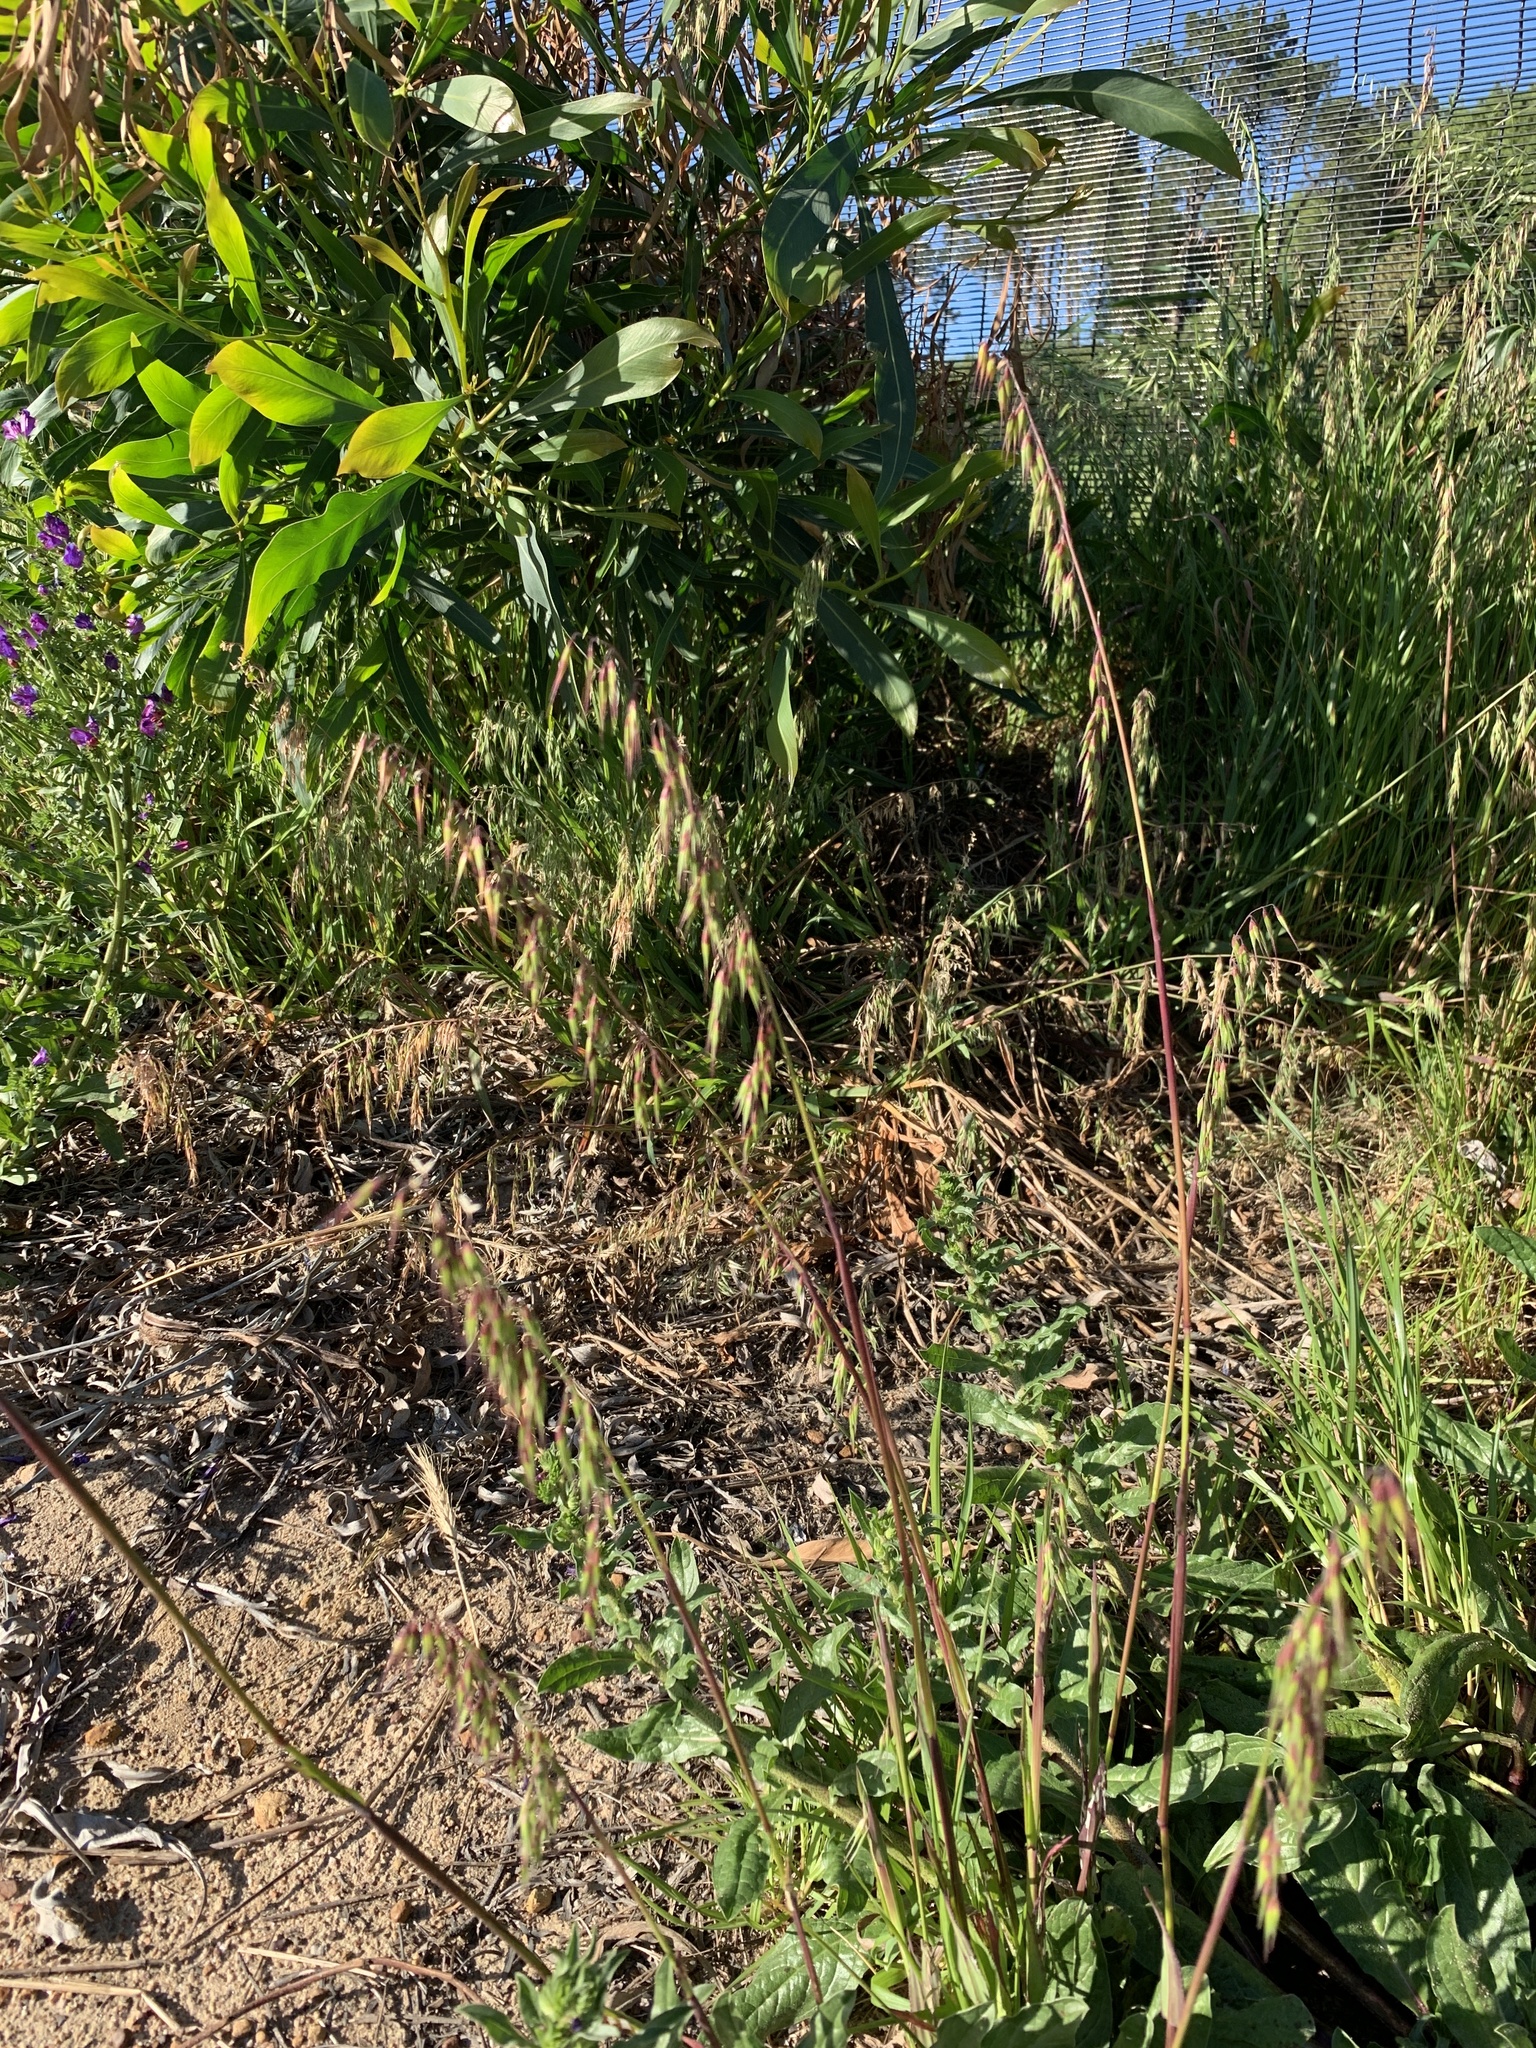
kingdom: Plantae
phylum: Tracheophyta
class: Liliopsida
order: Poales
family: Poaceae
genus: Ehrharta
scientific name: Ehrharta longiflora
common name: Longflowered veldtgrass
